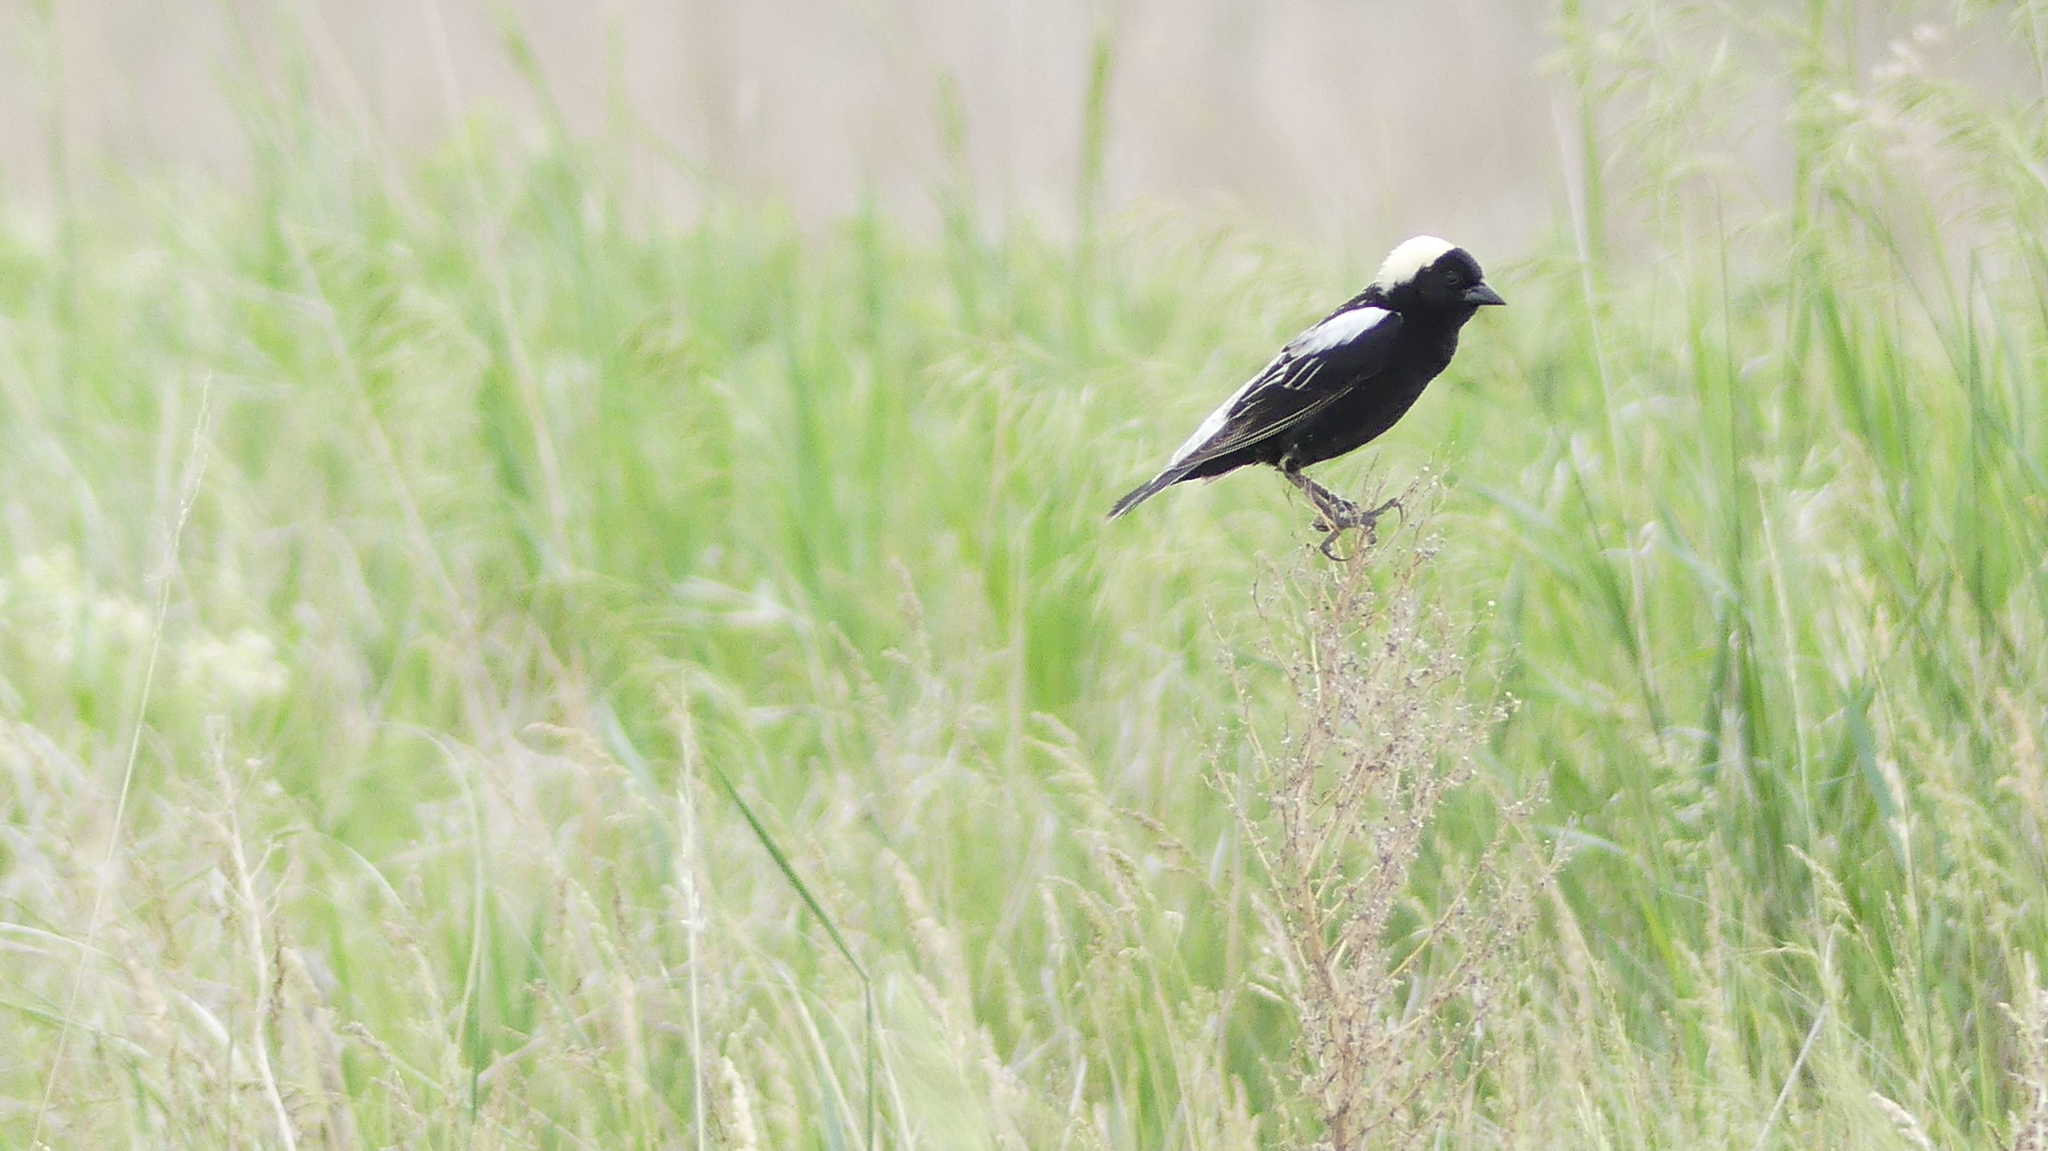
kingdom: Animalia
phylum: Chordata
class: Aves
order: Passeriformes
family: Icteridae
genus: Dolichonyx
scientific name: Dolichonyx oryzivorus
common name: Bobolink
